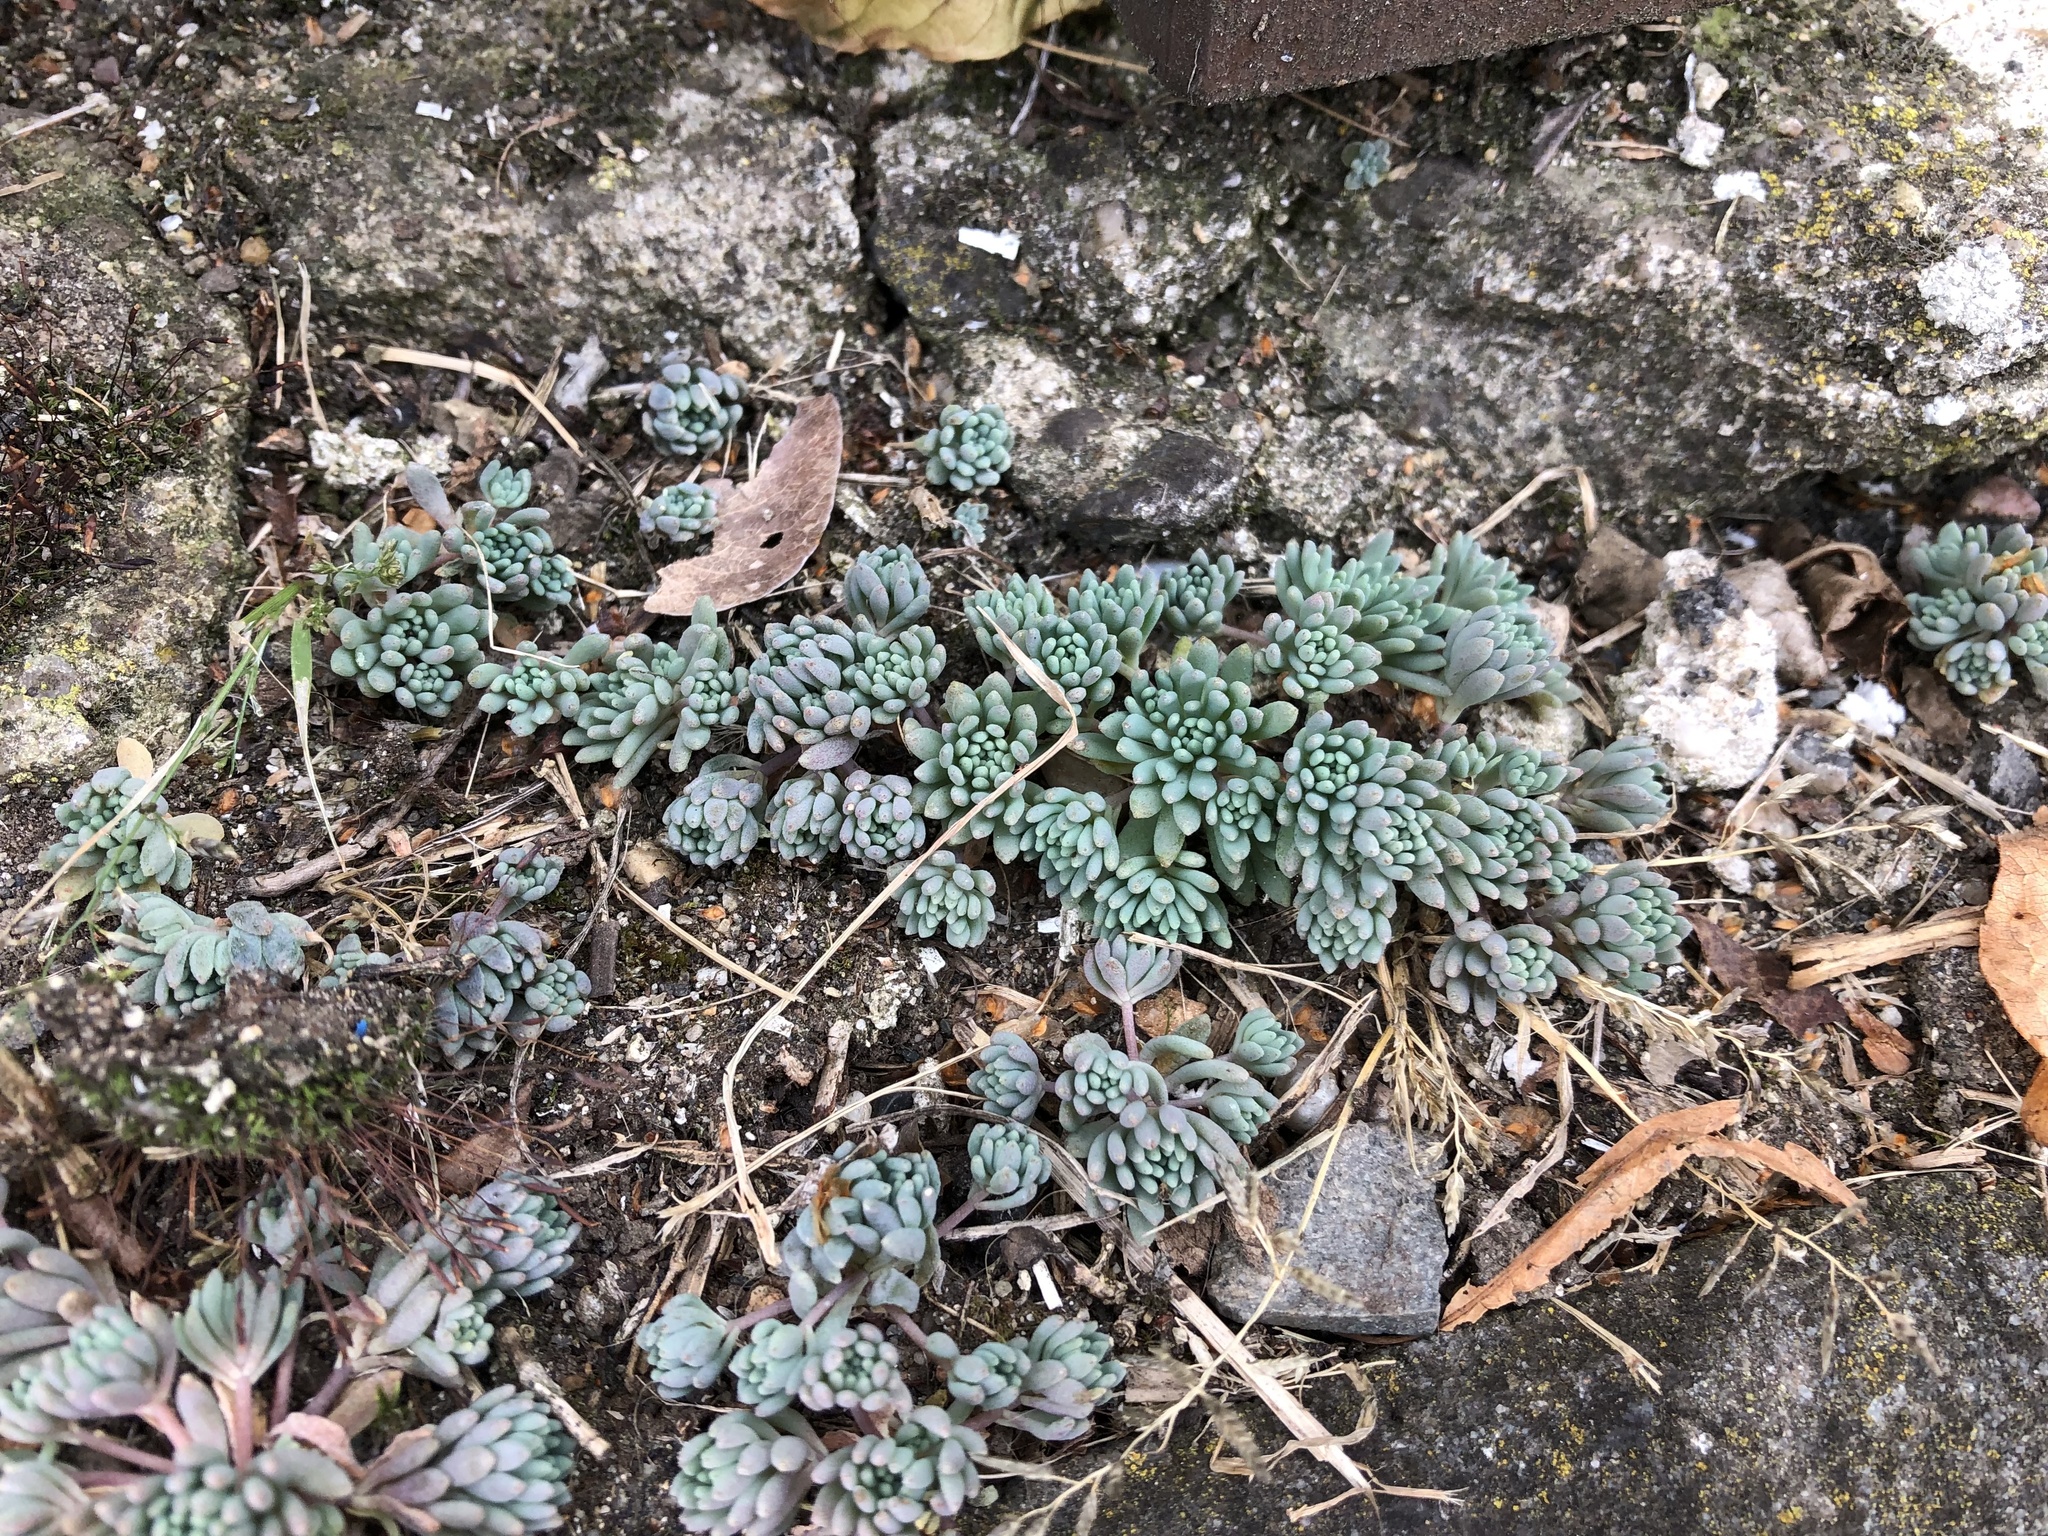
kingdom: Plantae
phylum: Tracheophyta
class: Magnoliopsida
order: Saxifragales
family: Crassulaceae
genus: Sedum
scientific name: Sedum hispanicum
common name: Spanish stonecrop
